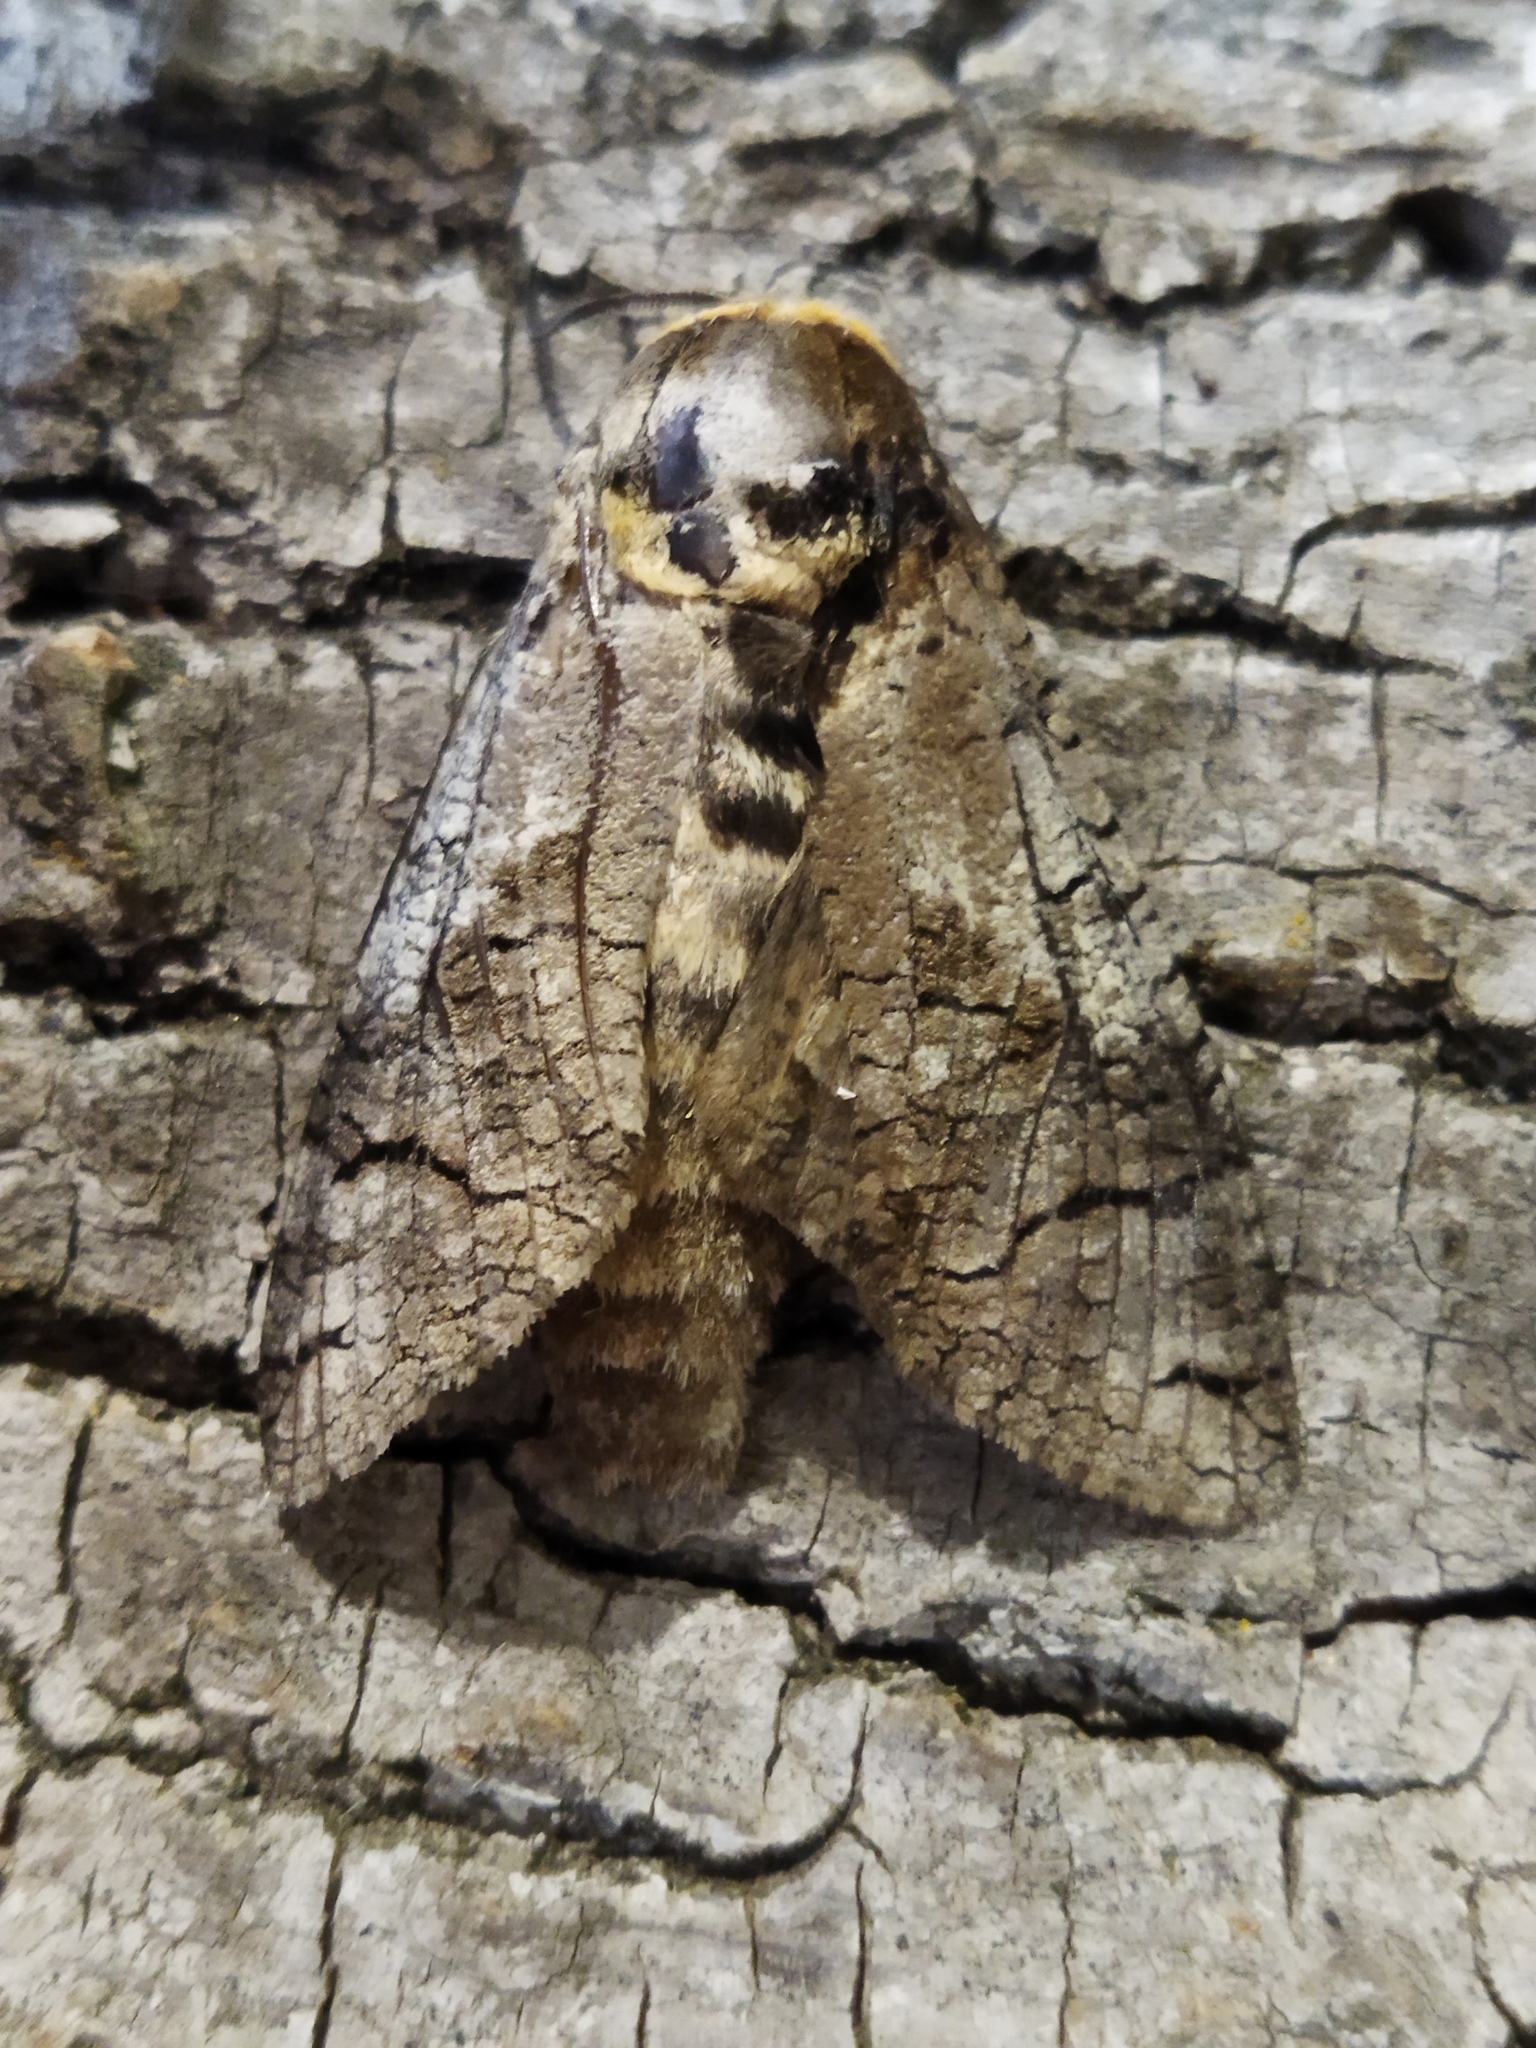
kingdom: Animalia
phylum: Arthropoda
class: Insecta
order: Lepidoptera
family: Cossidae
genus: Cossus
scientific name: Cossus cossus
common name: Goat moth
